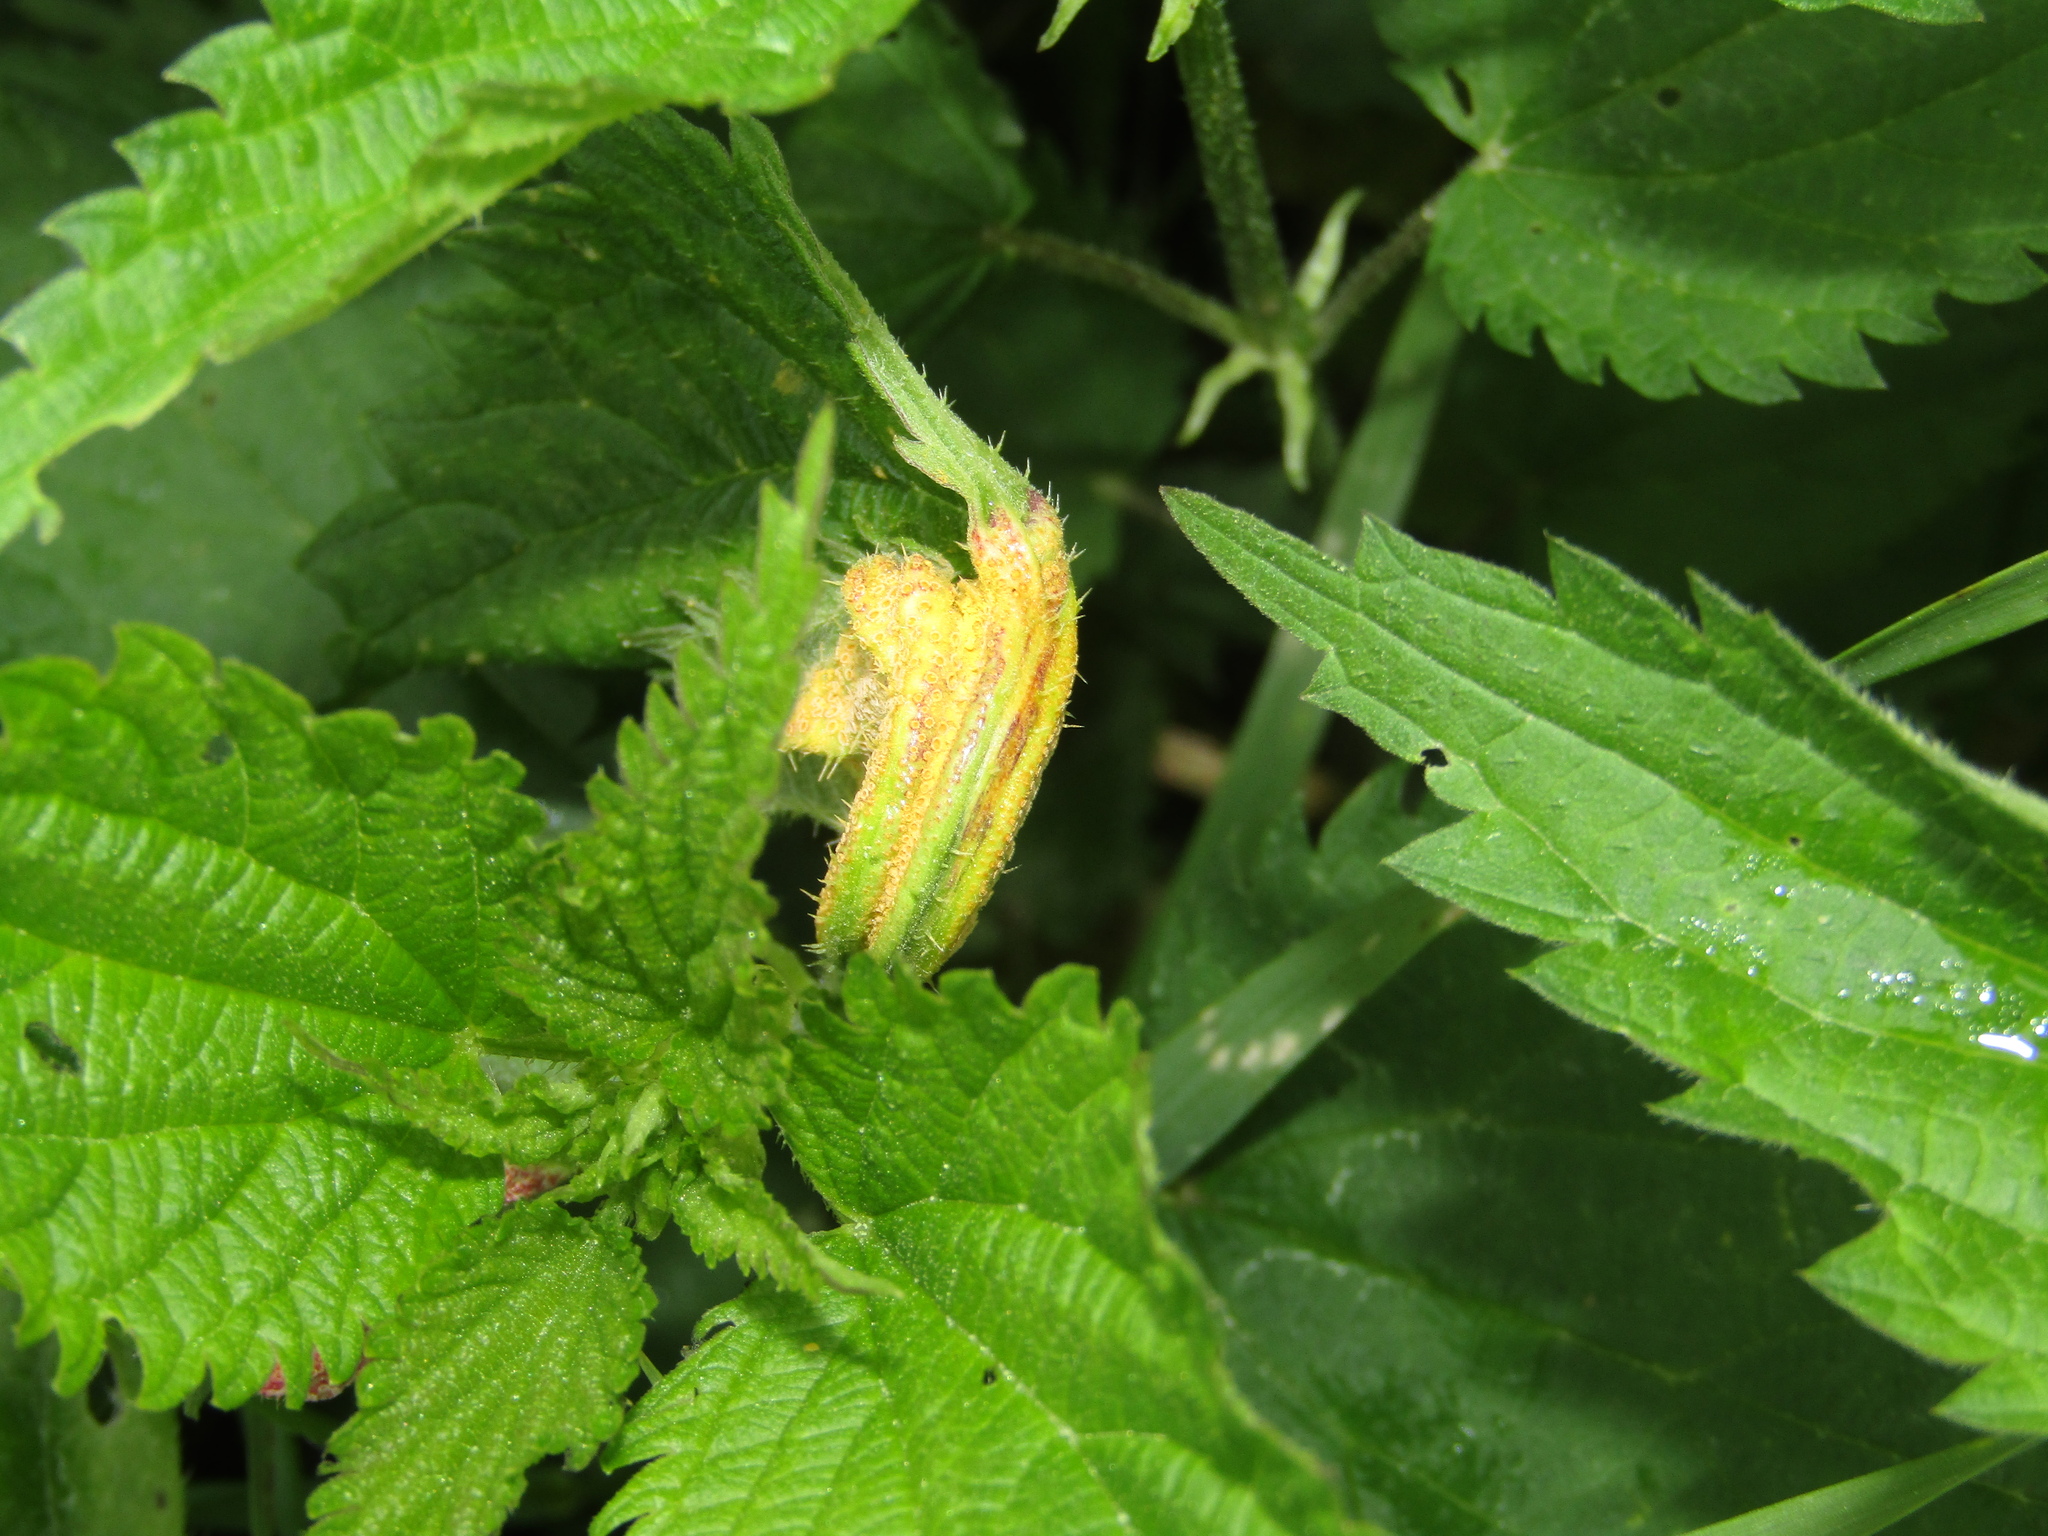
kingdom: Fungi
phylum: Basidiomycota
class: Pucciniomycetes
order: Pucciniales
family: Pucciniaceae
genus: Puccinia
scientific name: Puccinia urticata
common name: Nettle clustercup rust fungus
